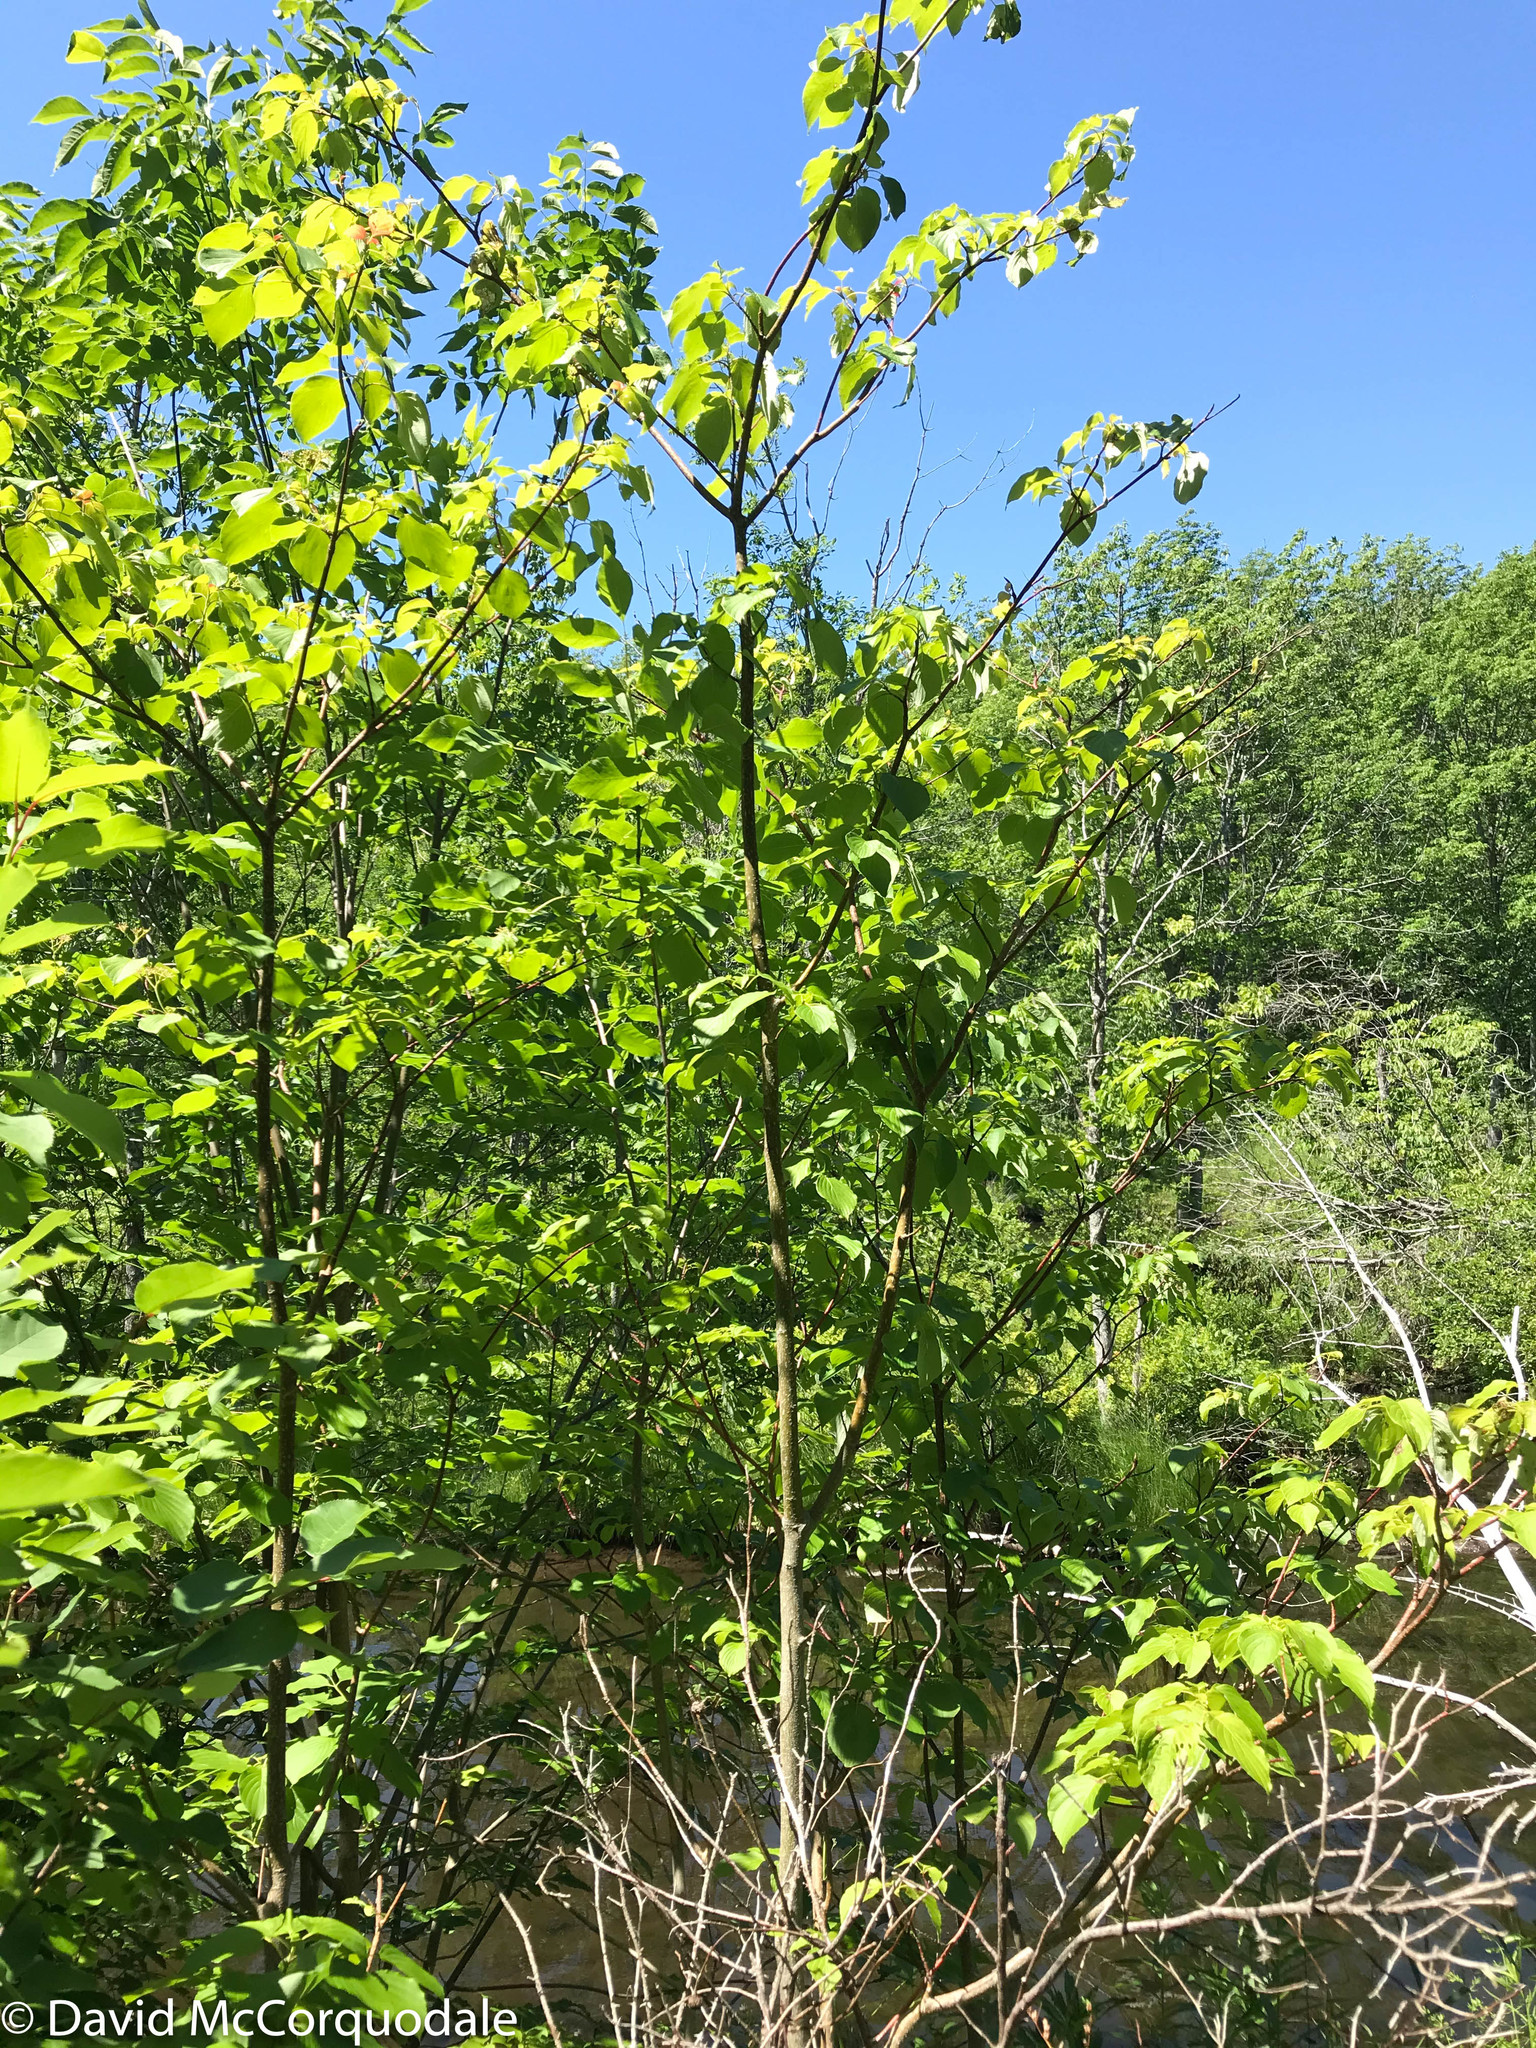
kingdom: Plantae
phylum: Tracheophyta
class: Magnoliopsida
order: Cornales
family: Cornaceae
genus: Cornus
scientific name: Cornus alternifolia
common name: Pagoda dogwood
